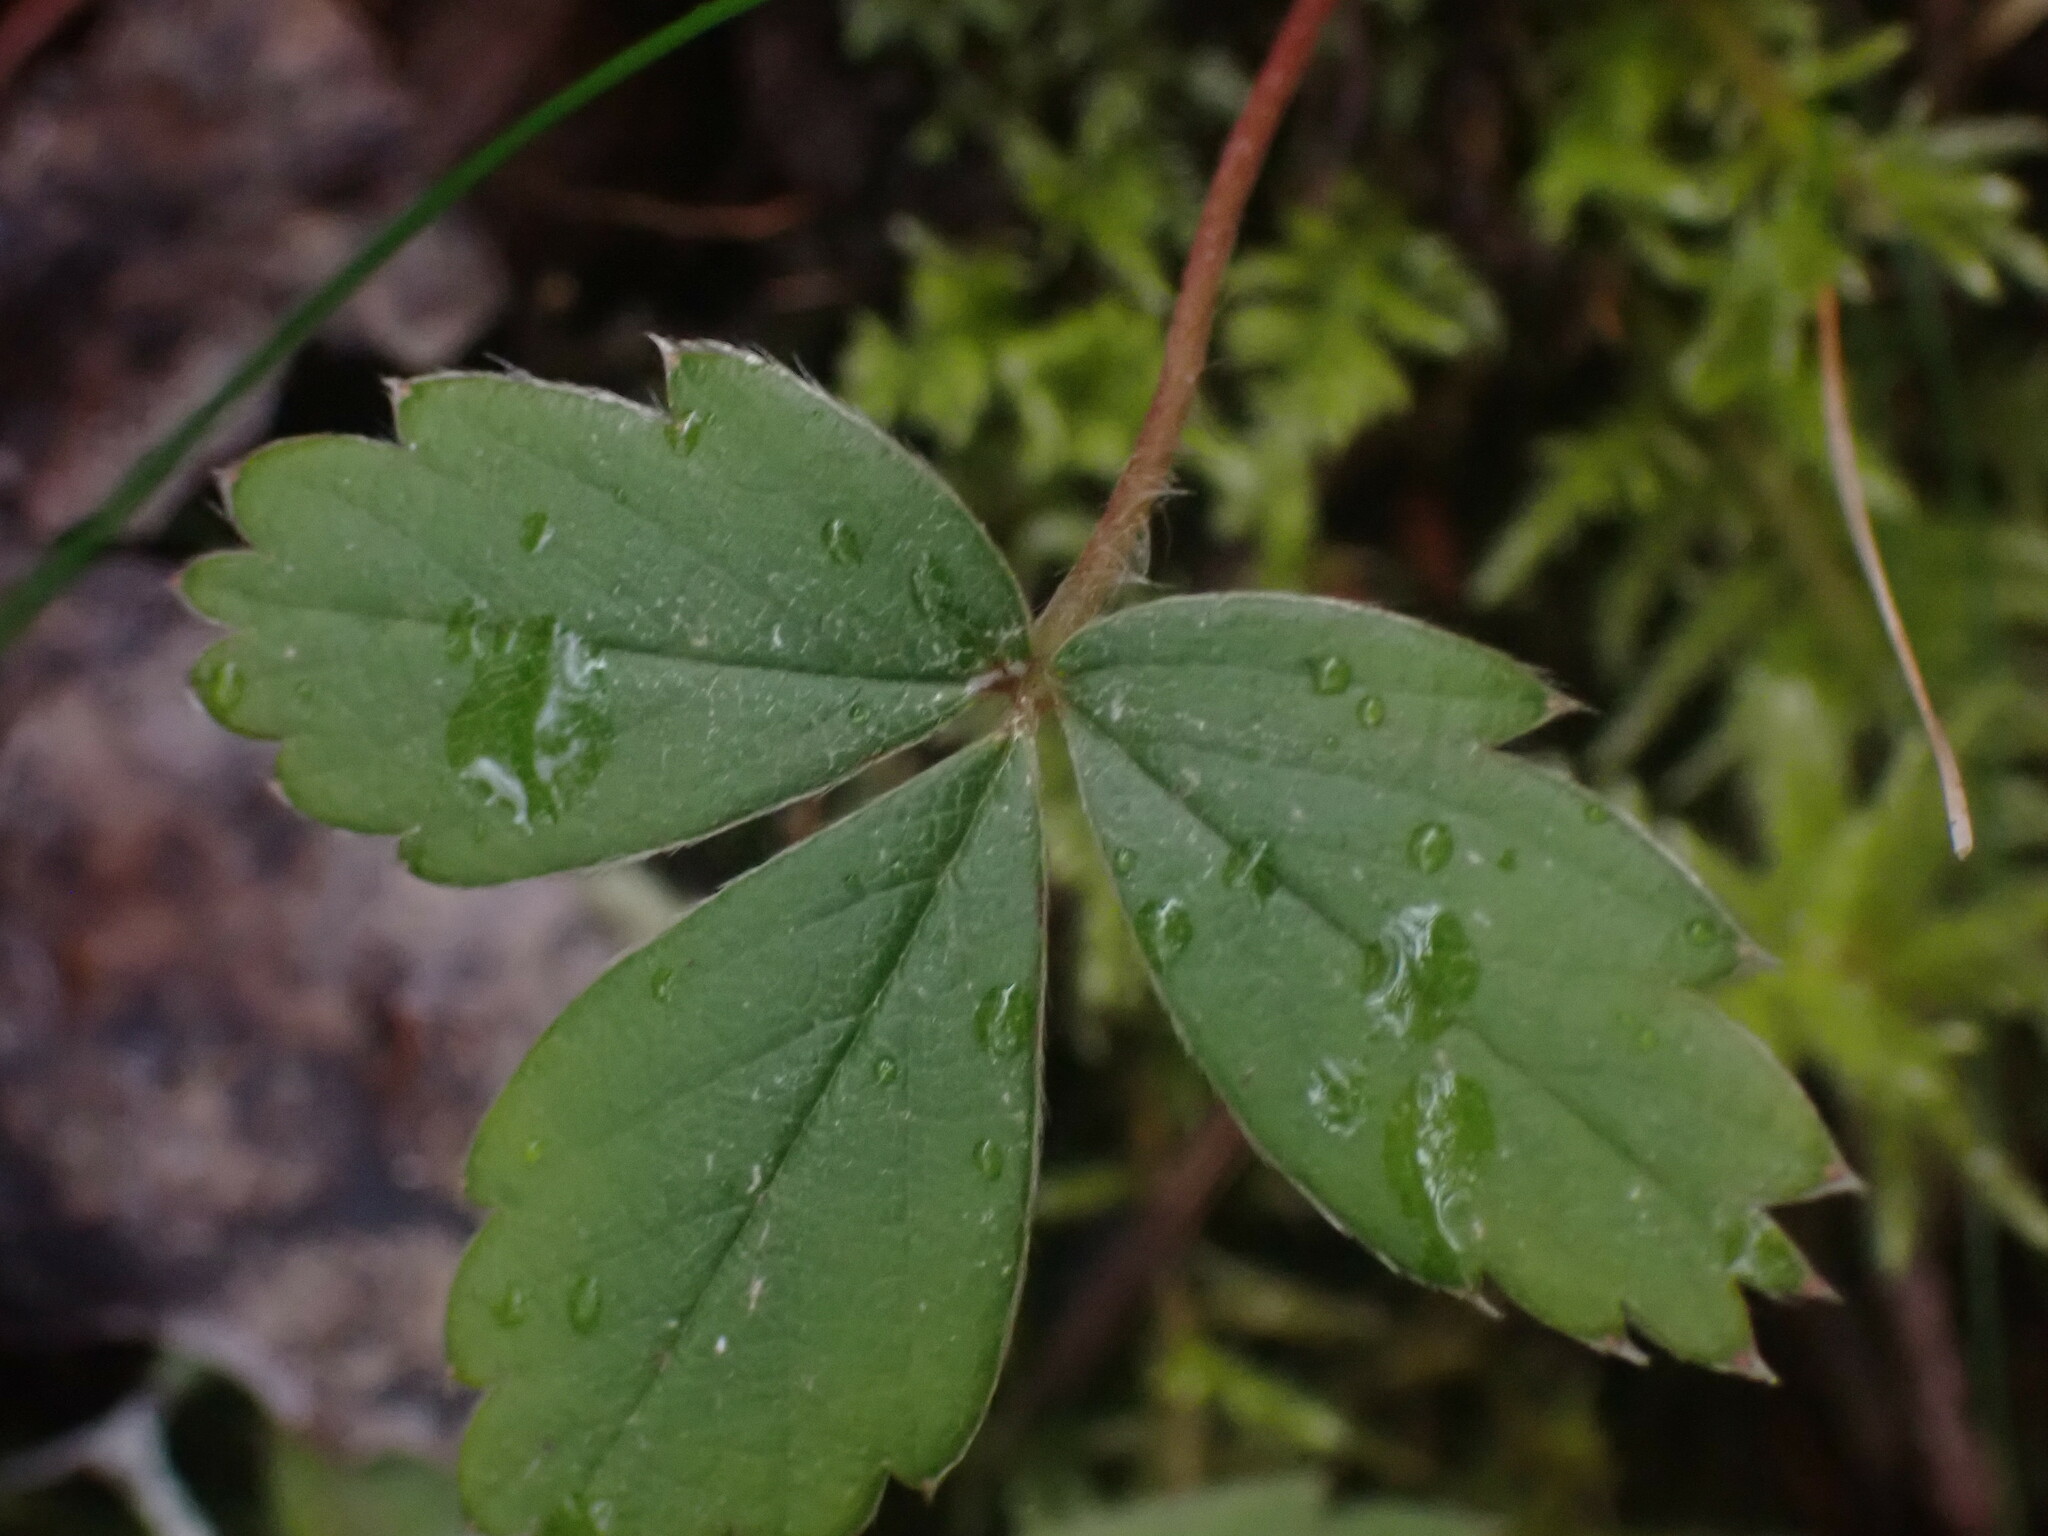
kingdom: Plantae
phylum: Tracheophyta
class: Magnoliopsida
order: Rosales
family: Rosaceae
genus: Fragaria
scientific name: Fragaria virginiana
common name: Thickleaved wild strawberry
